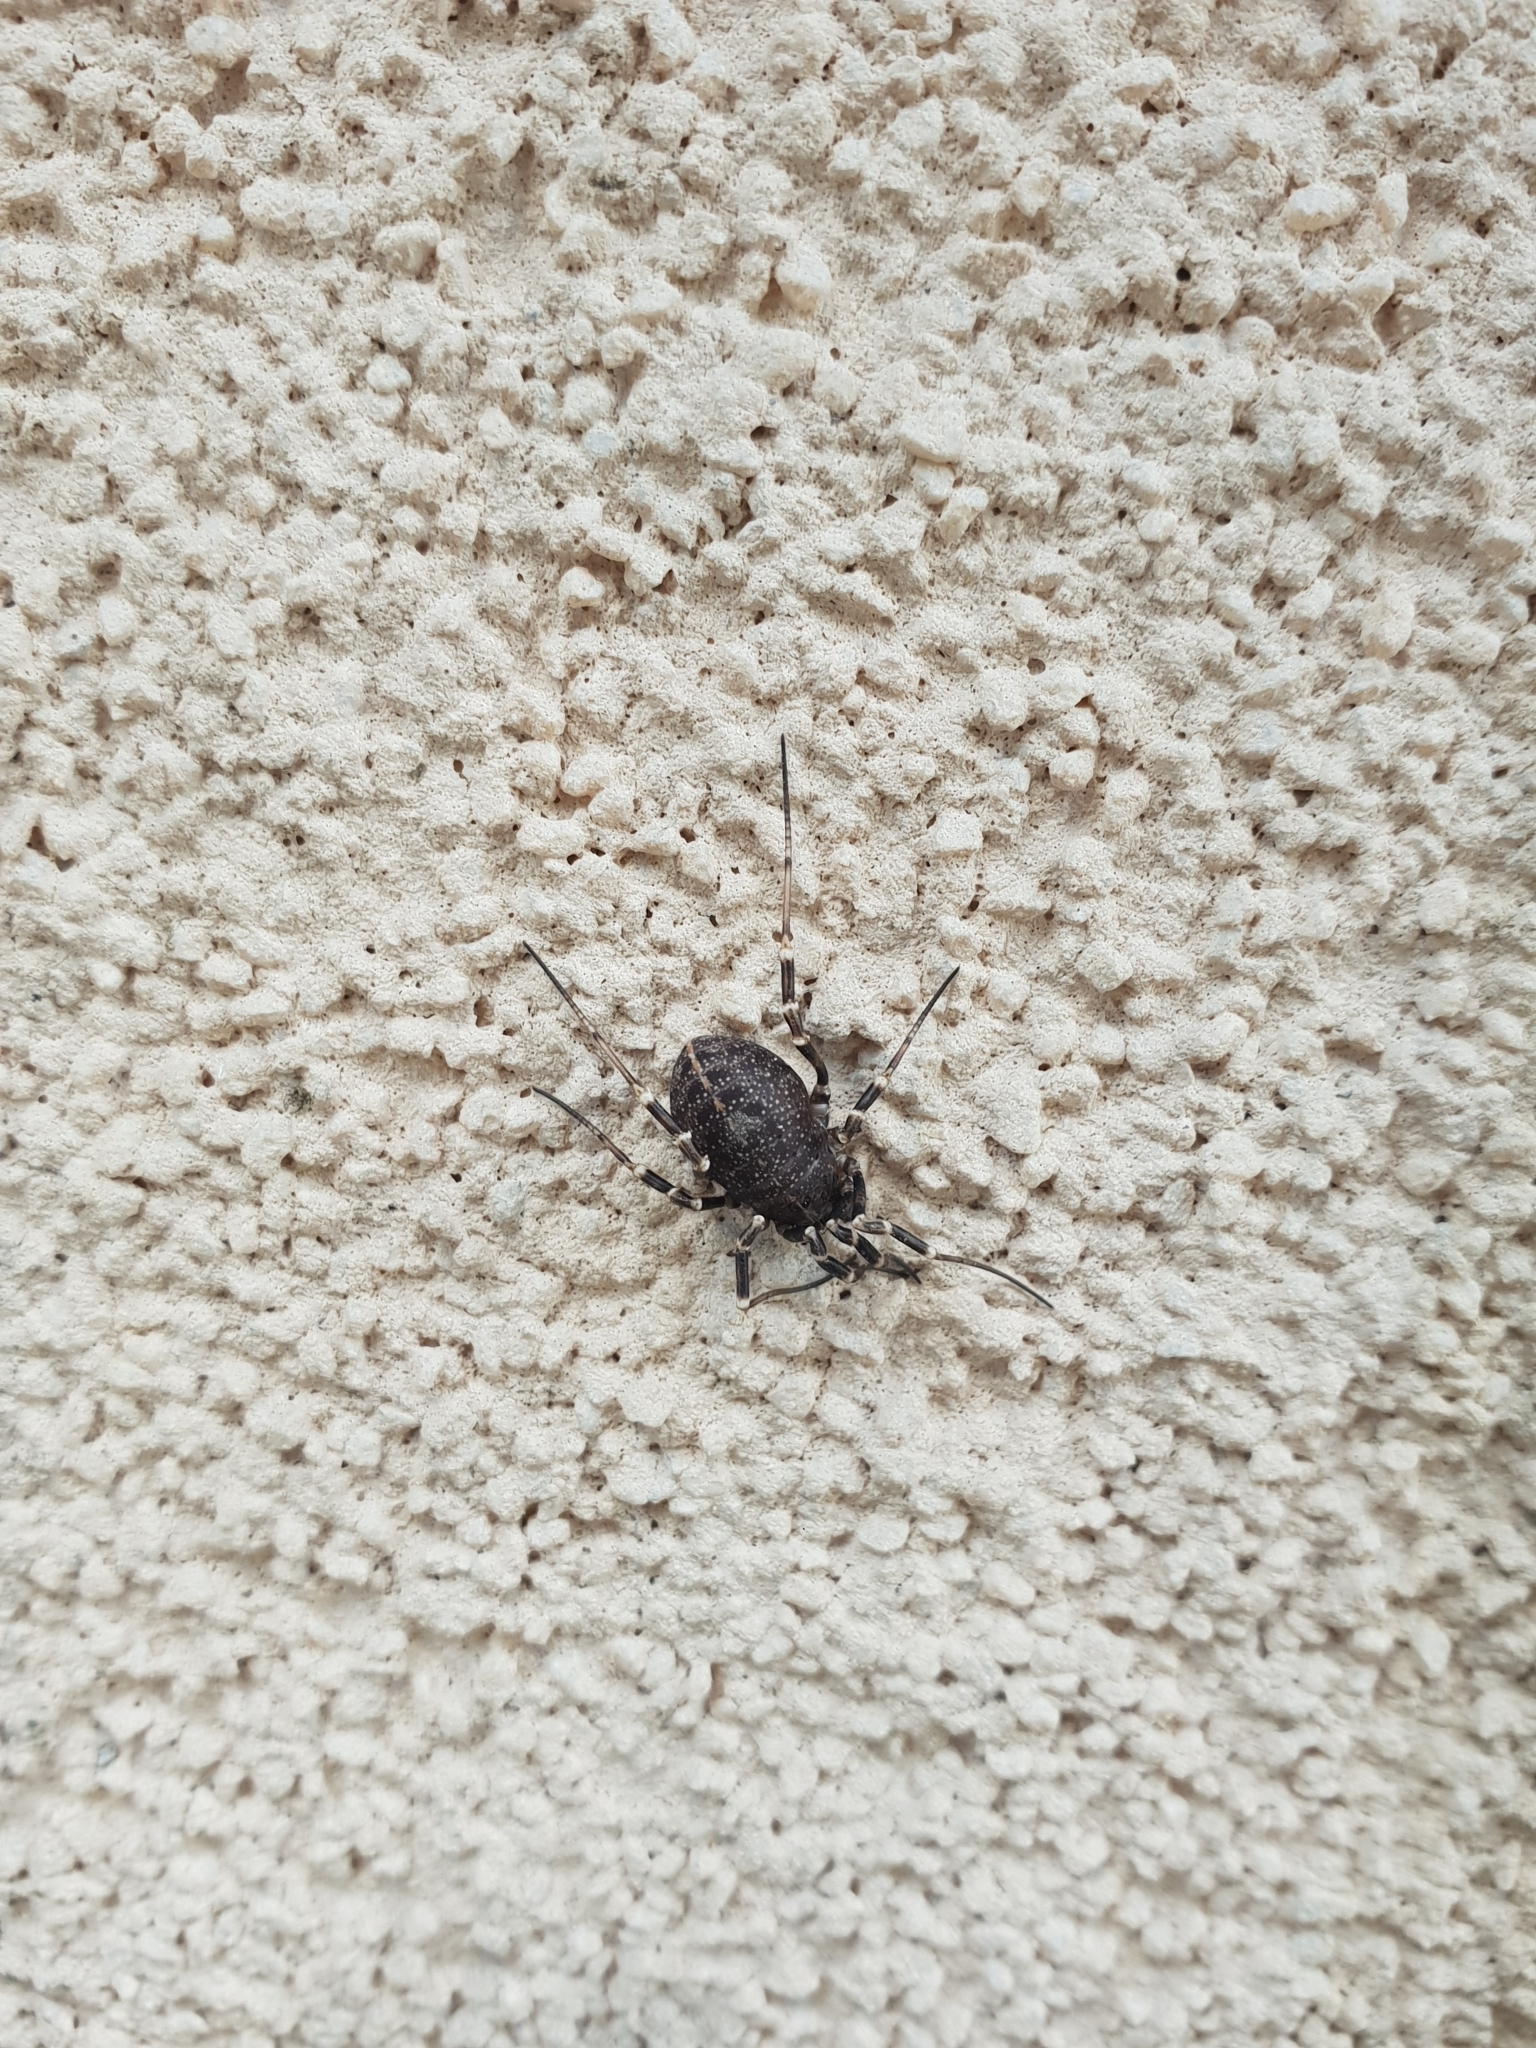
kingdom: Animalia
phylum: Arthropoda
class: Arachnida
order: Opiliones
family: Phalangiidae
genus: Egaenus
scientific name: Egaenus convexus
